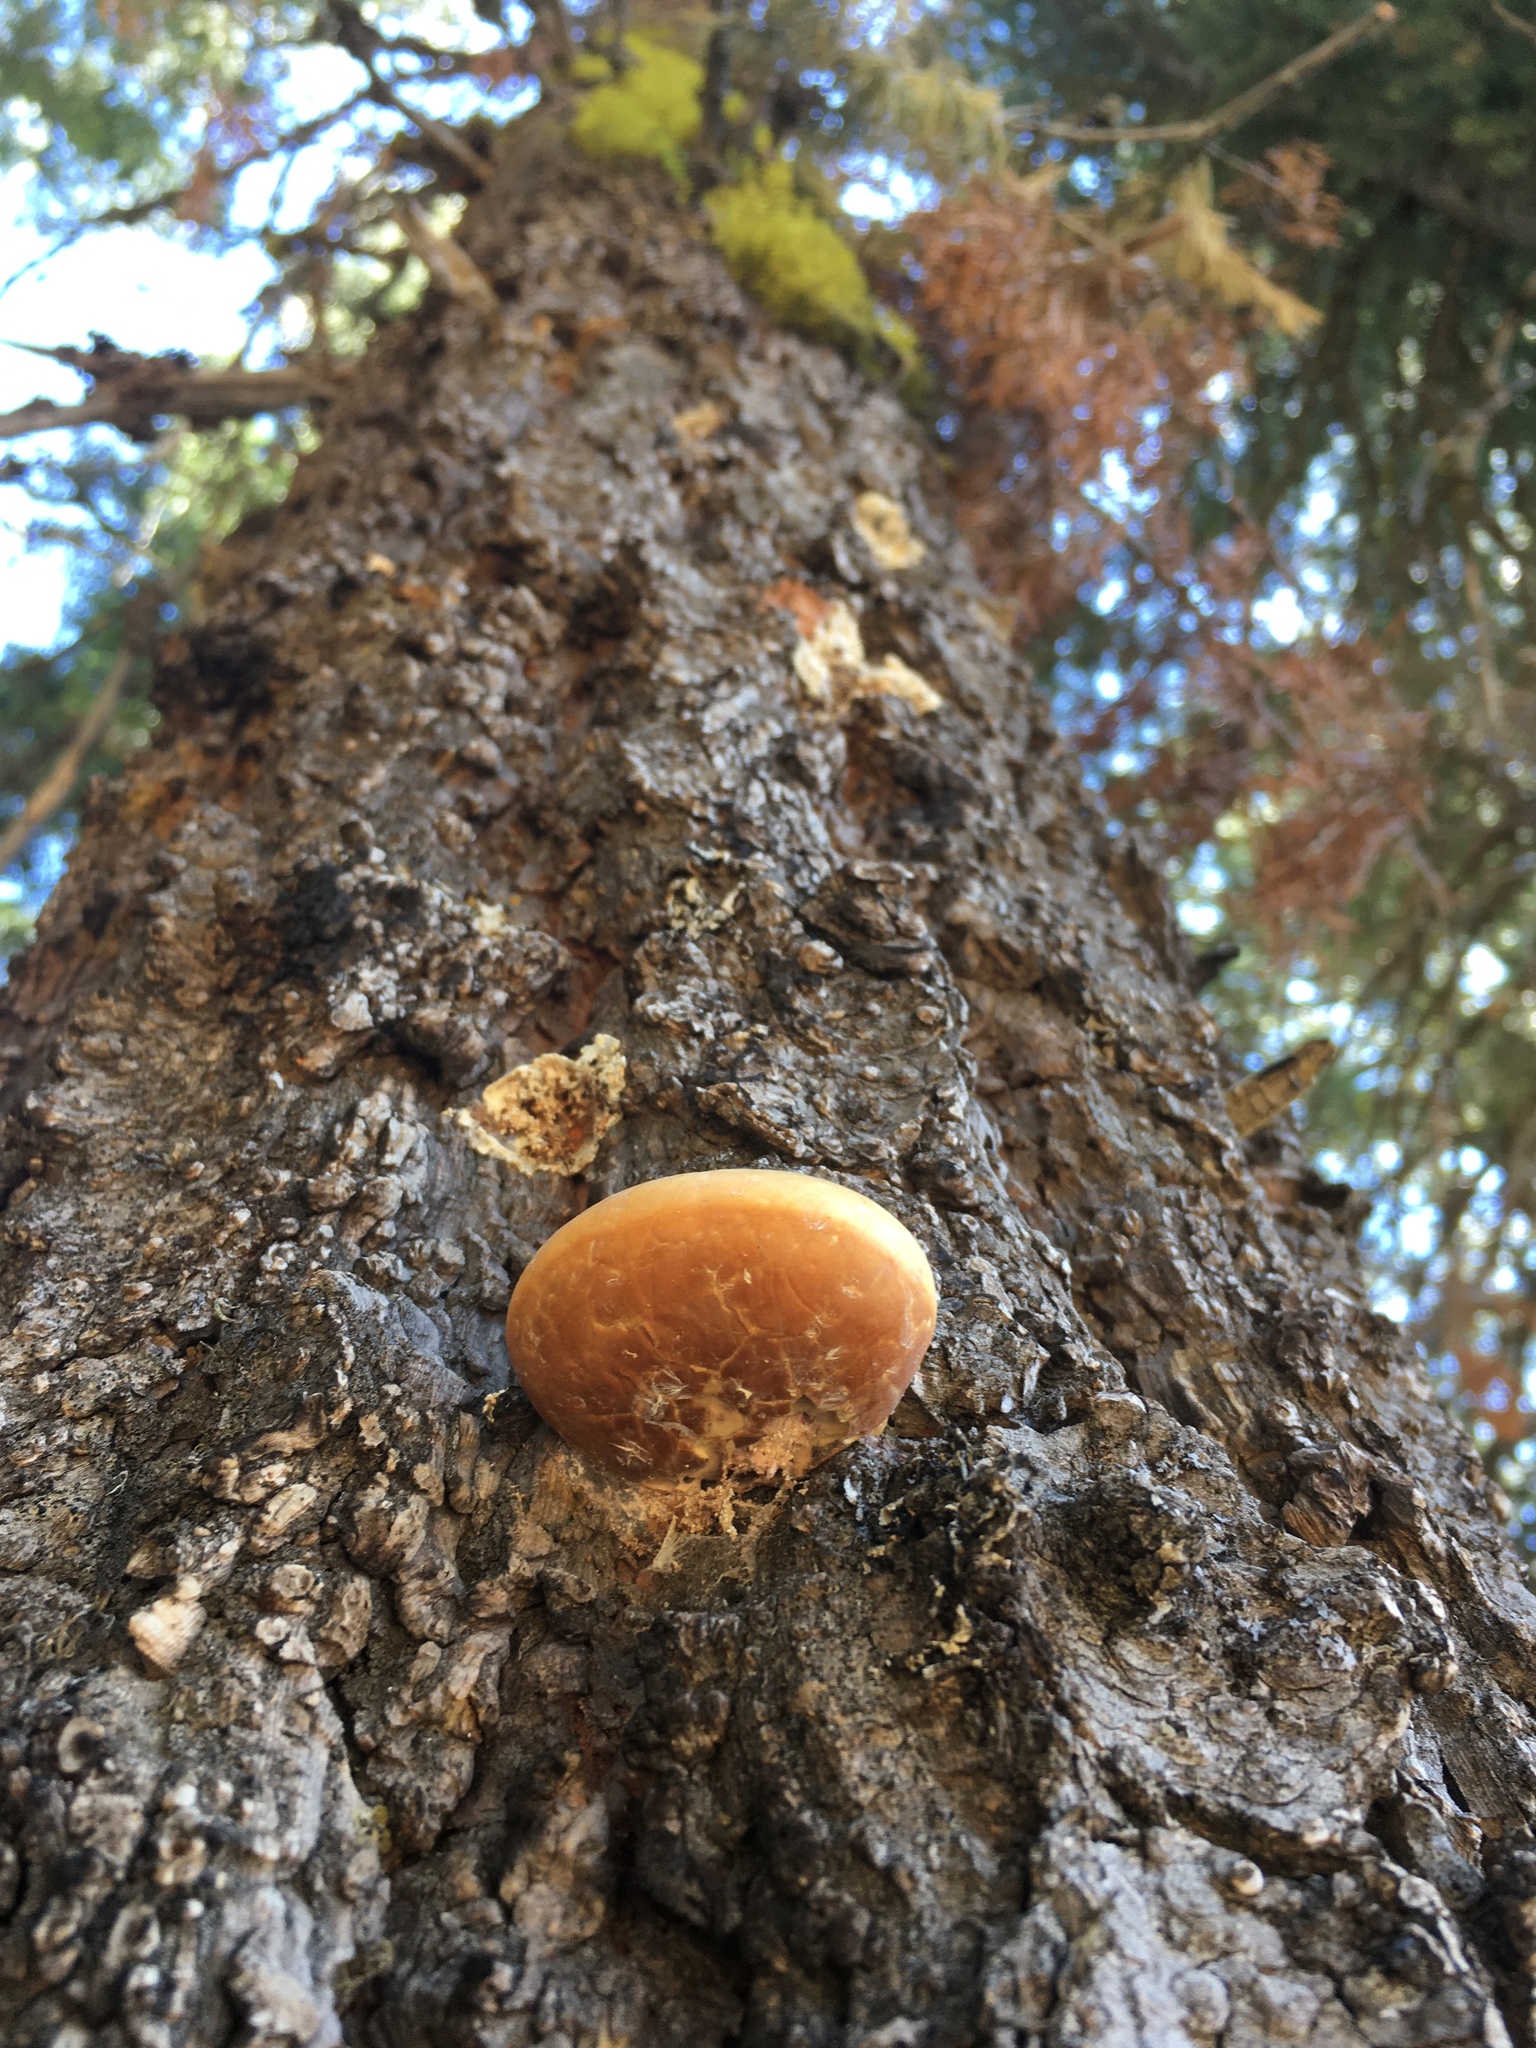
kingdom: Fungi
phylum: Basidiomycota
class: Agaricomycetes
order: Polyporales
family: Polyporaceae
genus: Cryptoporus
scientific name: Cryptoporus volvatus
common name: Veiled polypore
